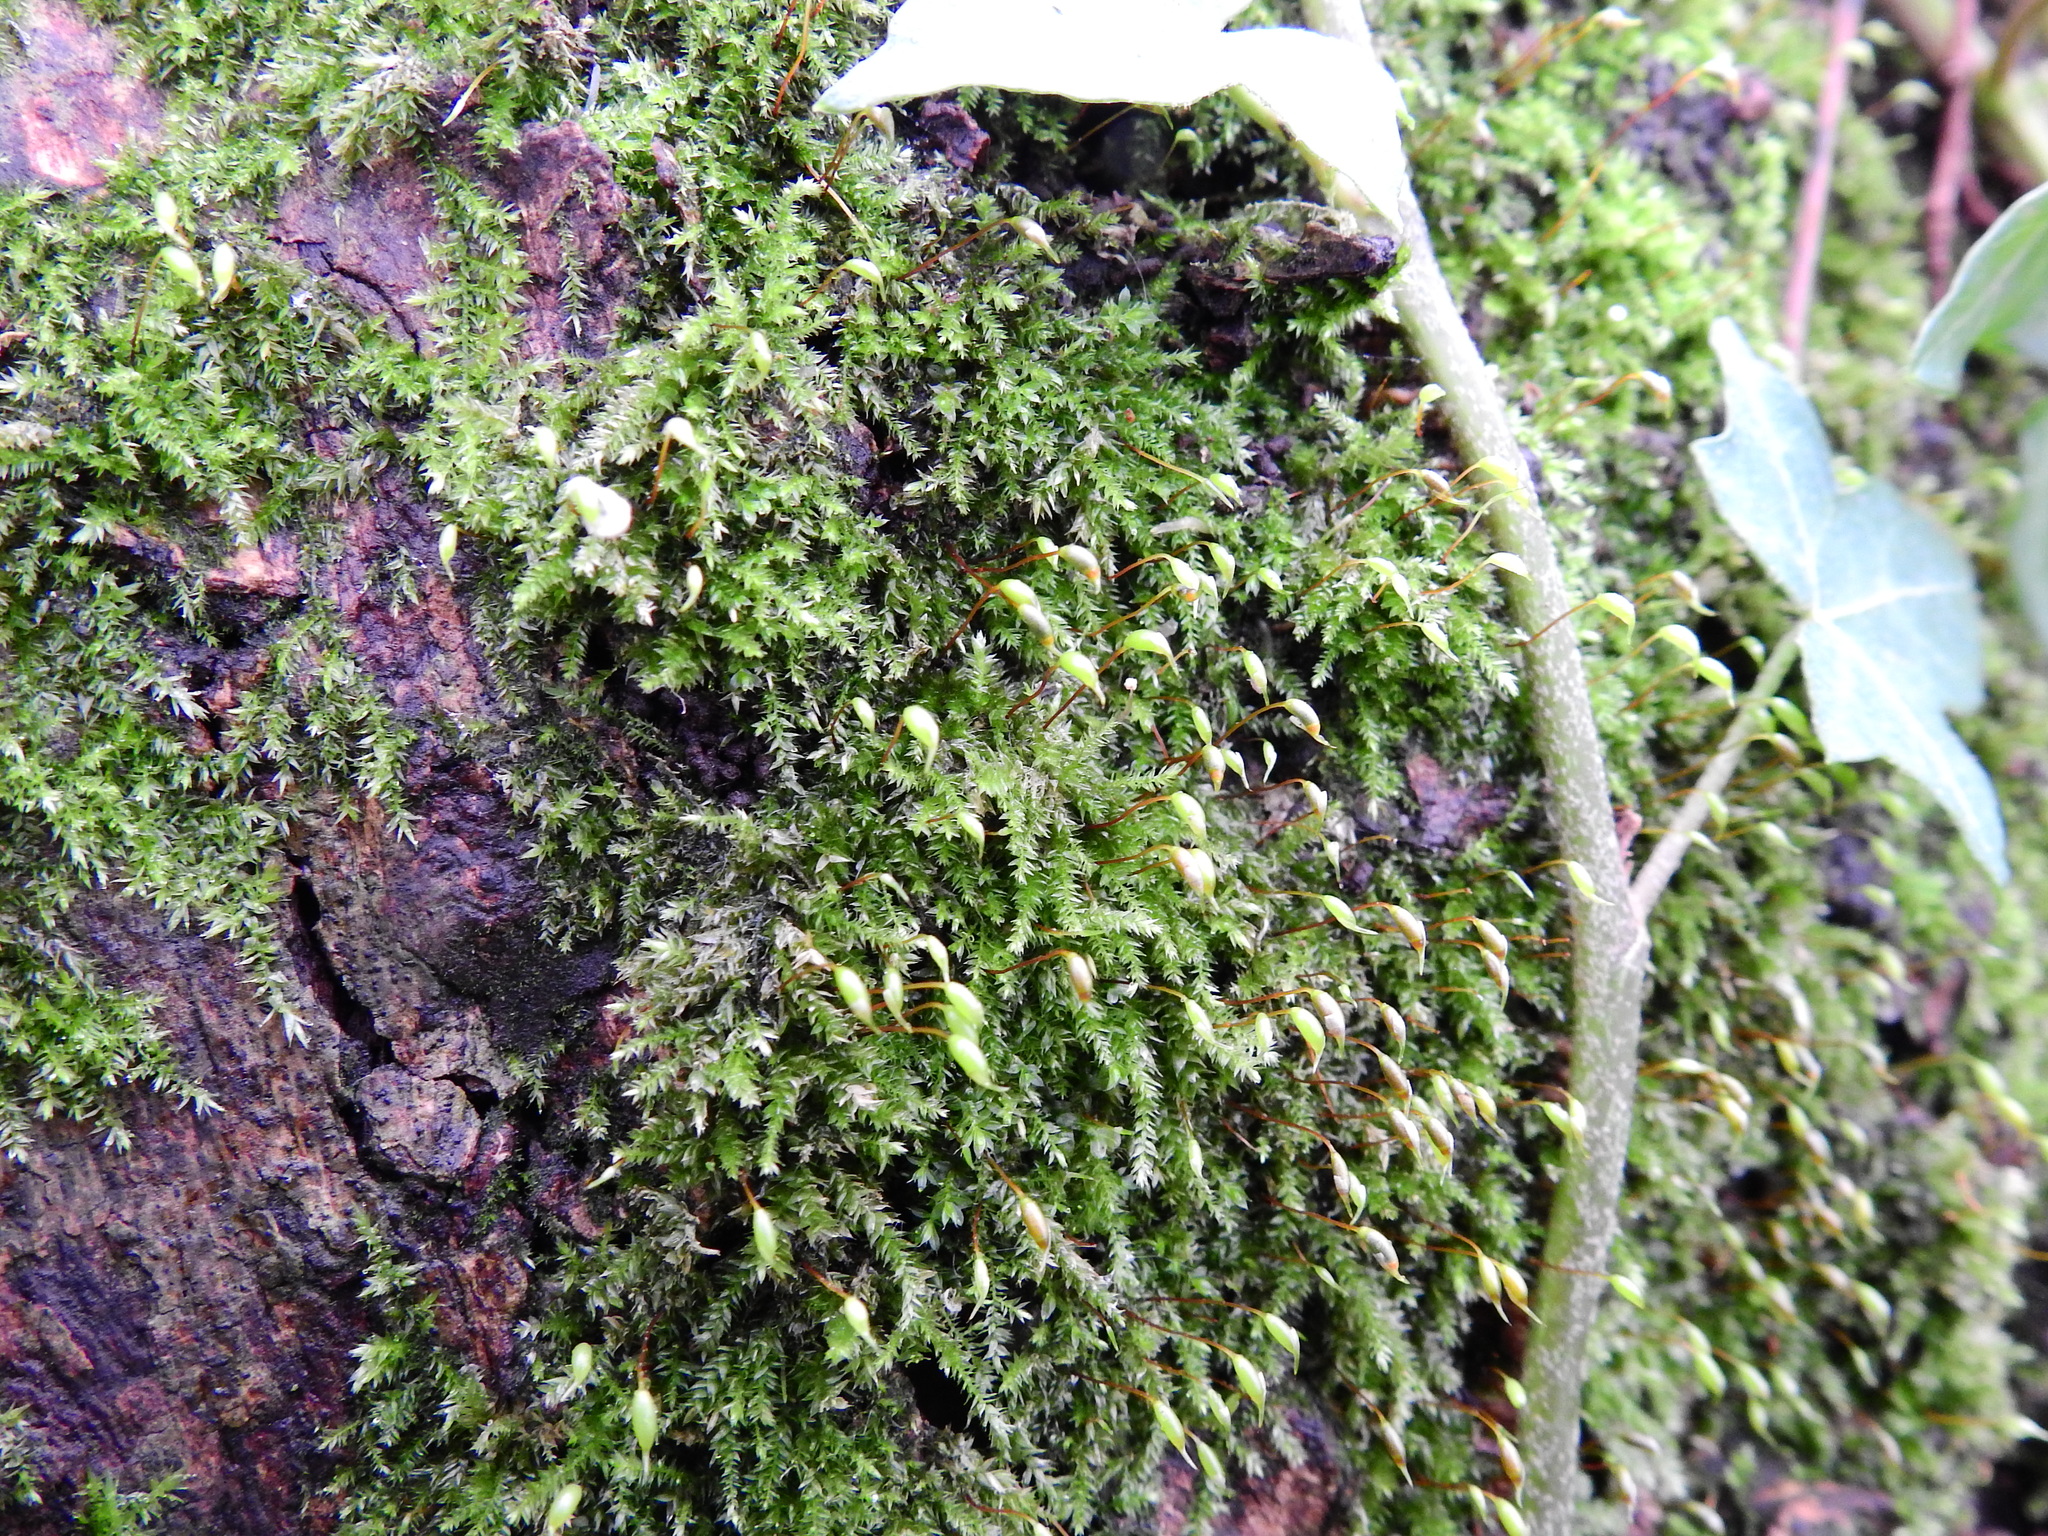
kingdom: Plantae
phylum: Bryophyta
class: Bryopsida
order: Hypnales
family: Brachytheciaceae
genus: Rhynchostegium
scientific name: Rhynchostegium confertum
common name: Clustered feather-moss
